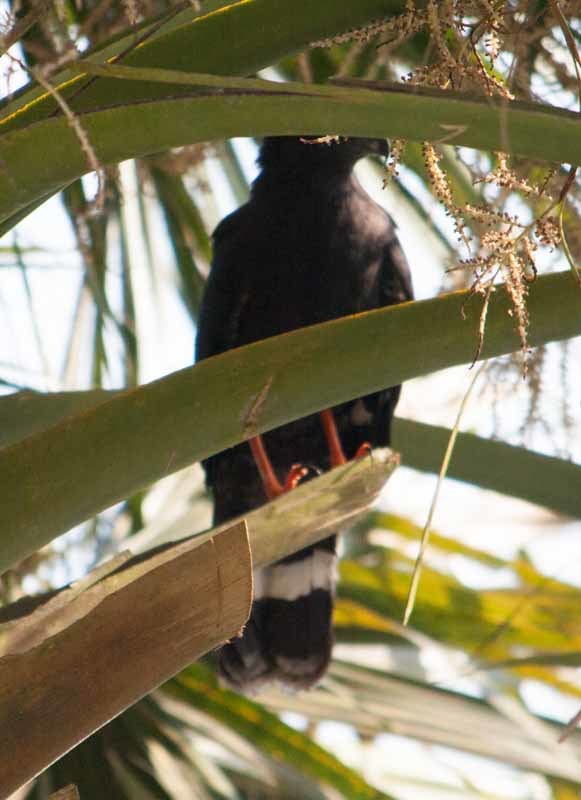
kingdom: Animalia
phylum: Chordata
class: Aves
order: Accipitriformes
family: Accipitridae
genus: Geranospiza
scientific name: Geranospiza caerulescens
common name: Crane hawk
